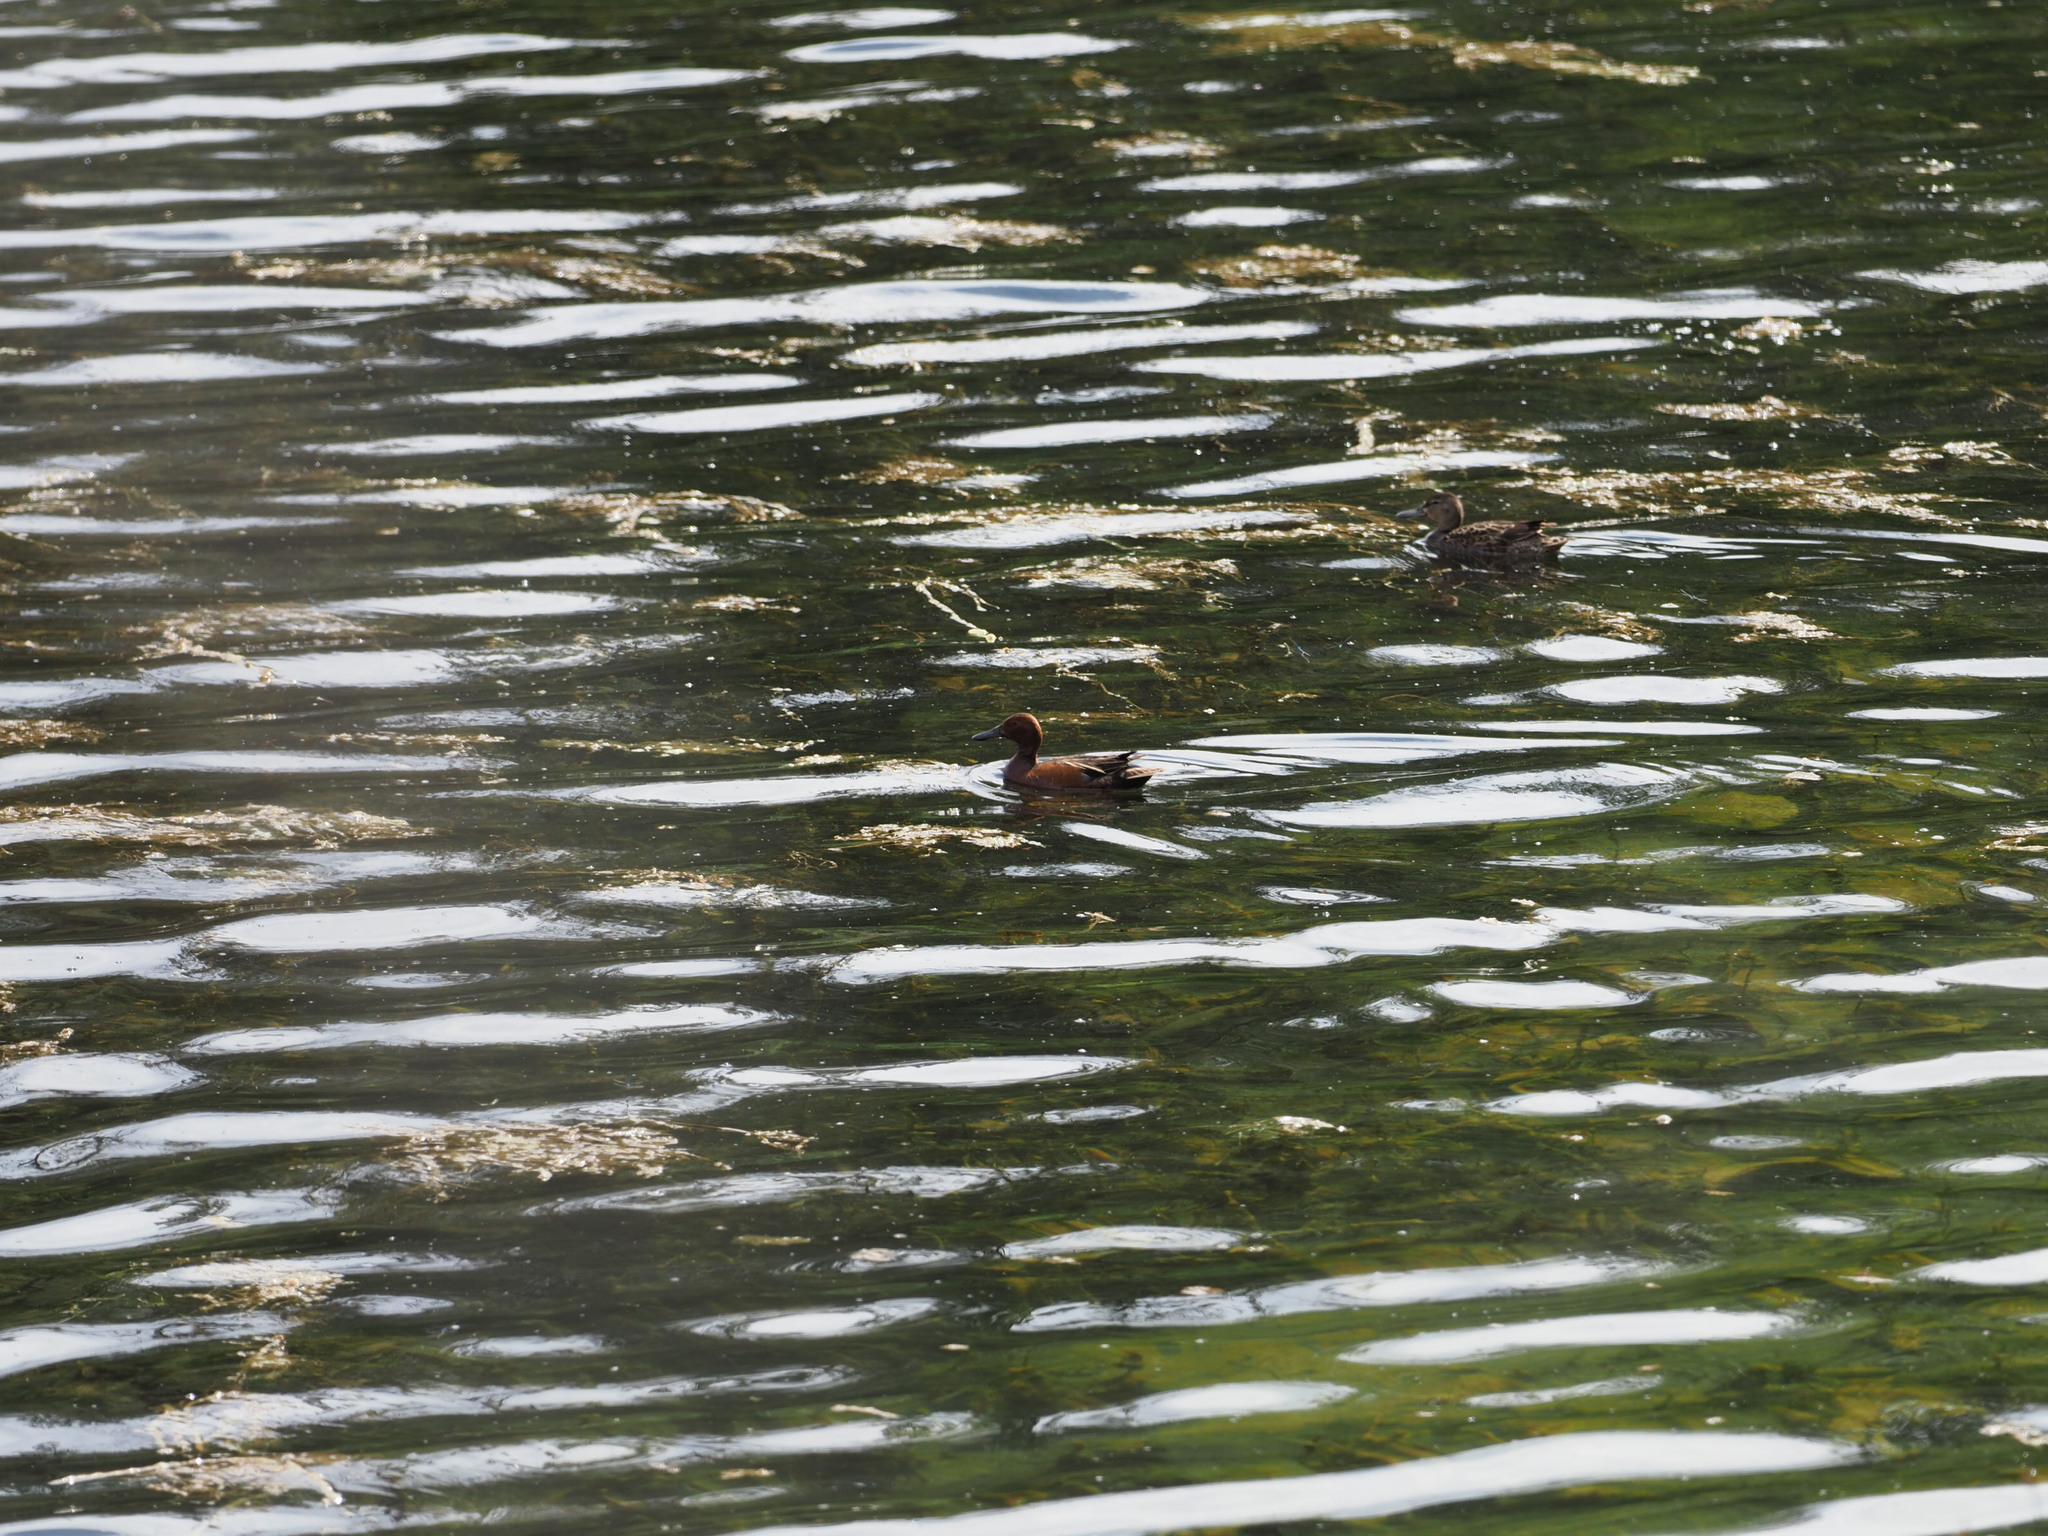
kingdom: Animalia
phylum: Chordata
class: Aves
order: Anseriformes
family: Anatidae
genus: Spatula
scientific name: Spatula cyanoptera
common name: Cinnamon teal
